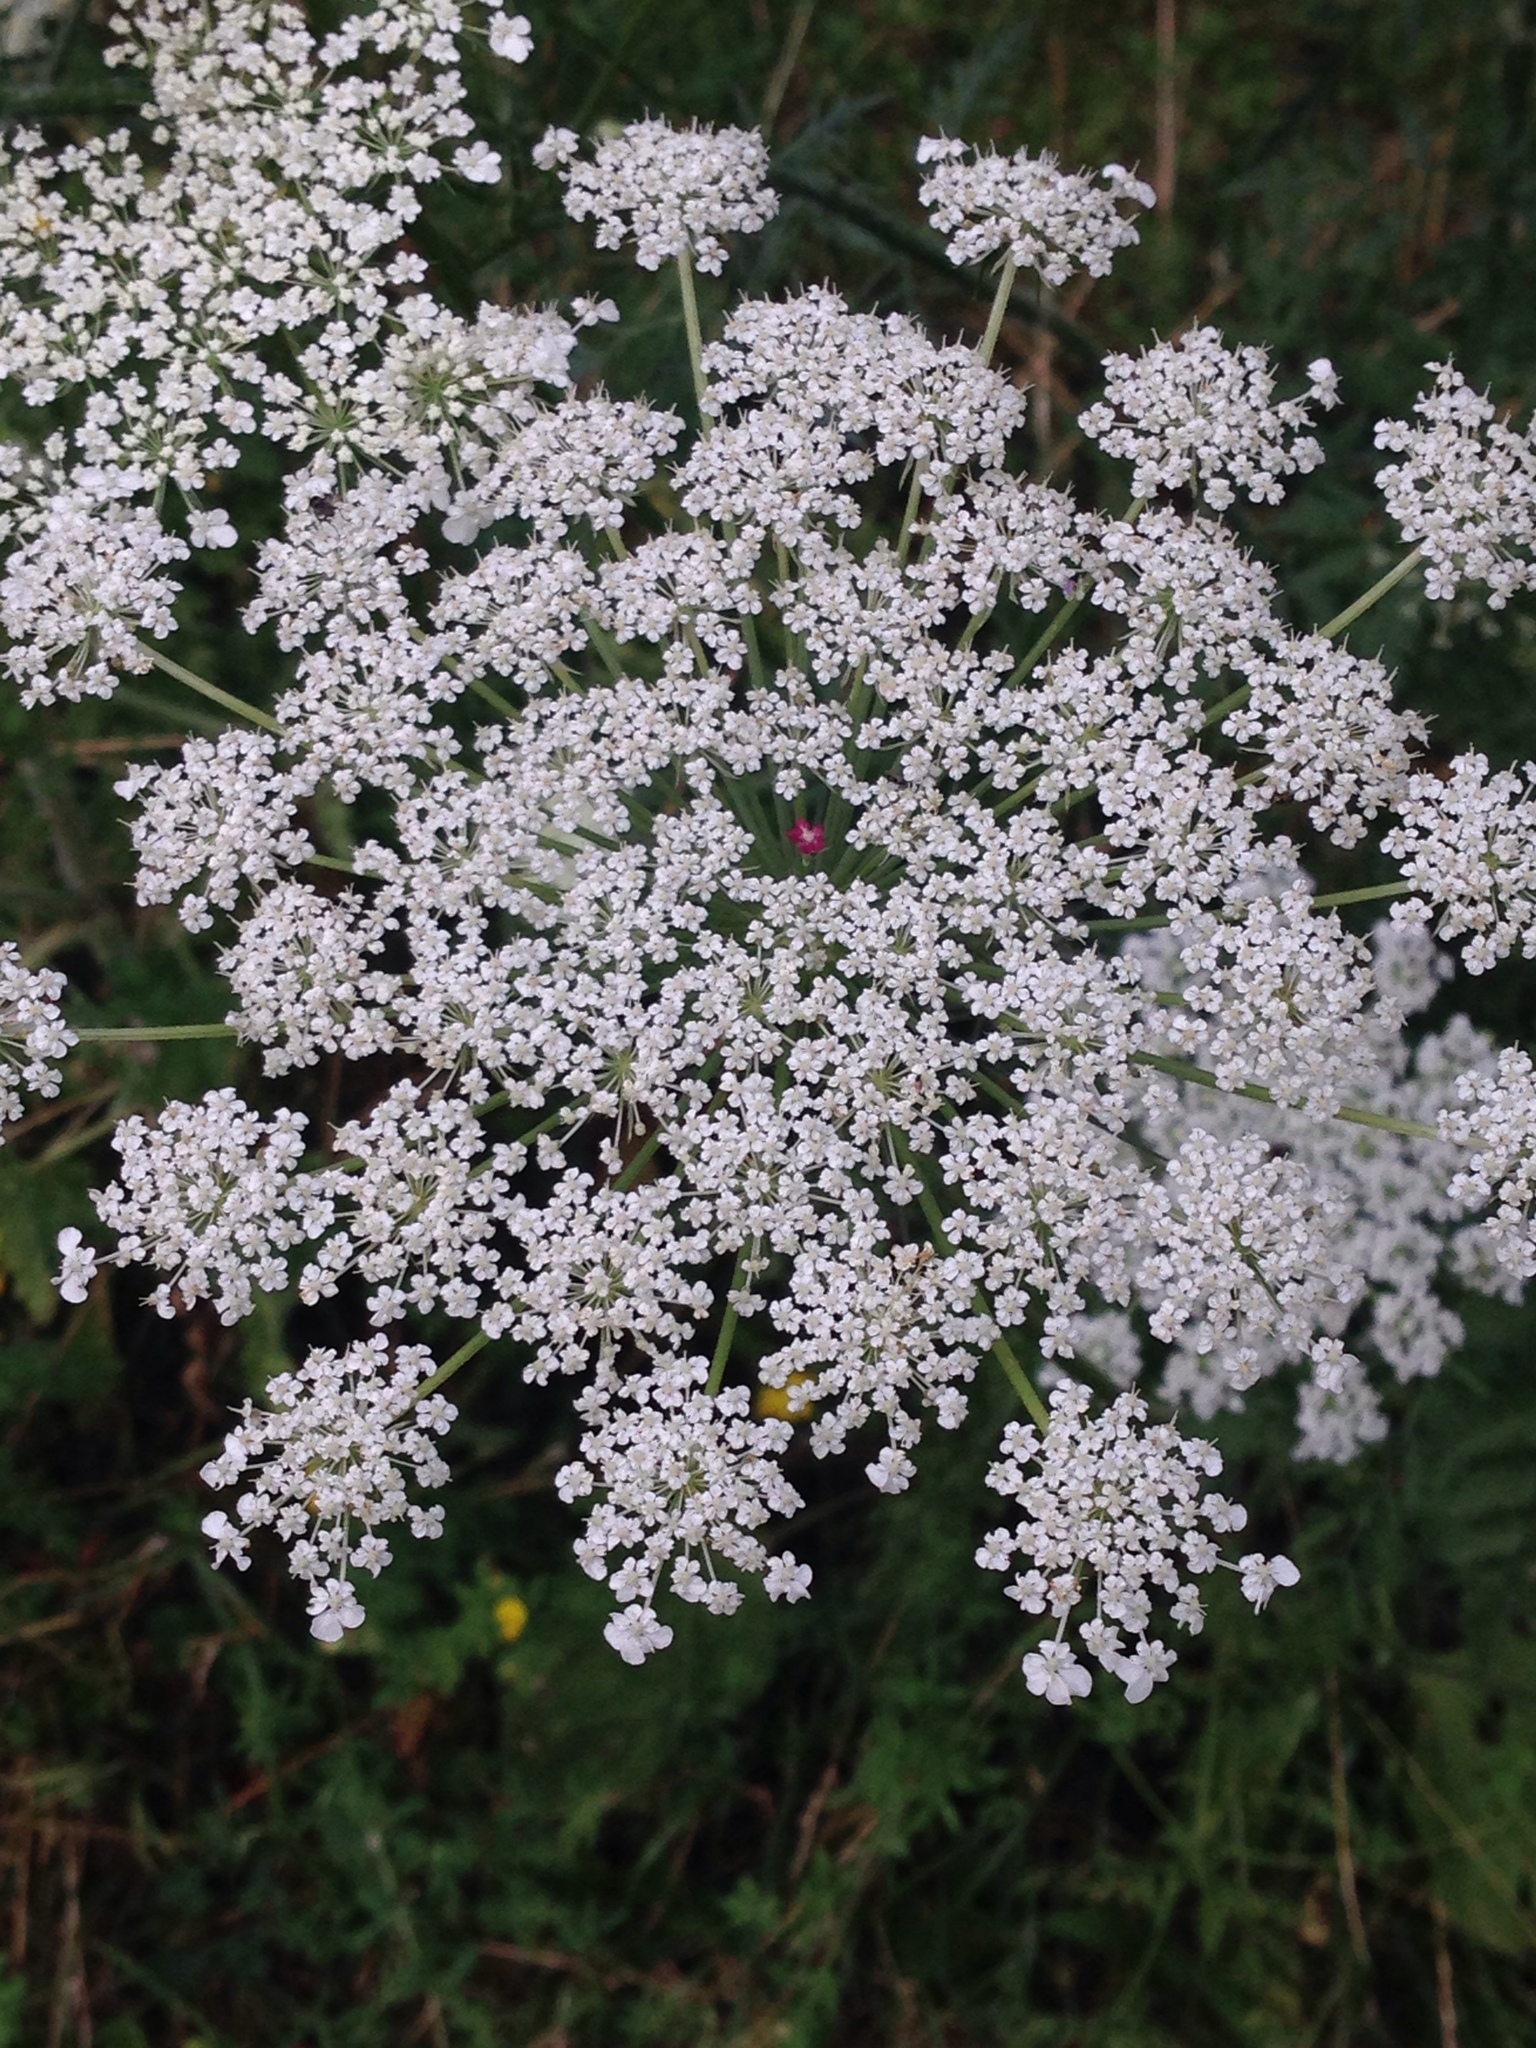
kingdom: Plantae
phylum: Tracheophyta
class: Magnoliopsida
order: Apiales
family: Apiaceae
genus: Daucus
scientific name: Daucus carota
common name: Wild carrot
